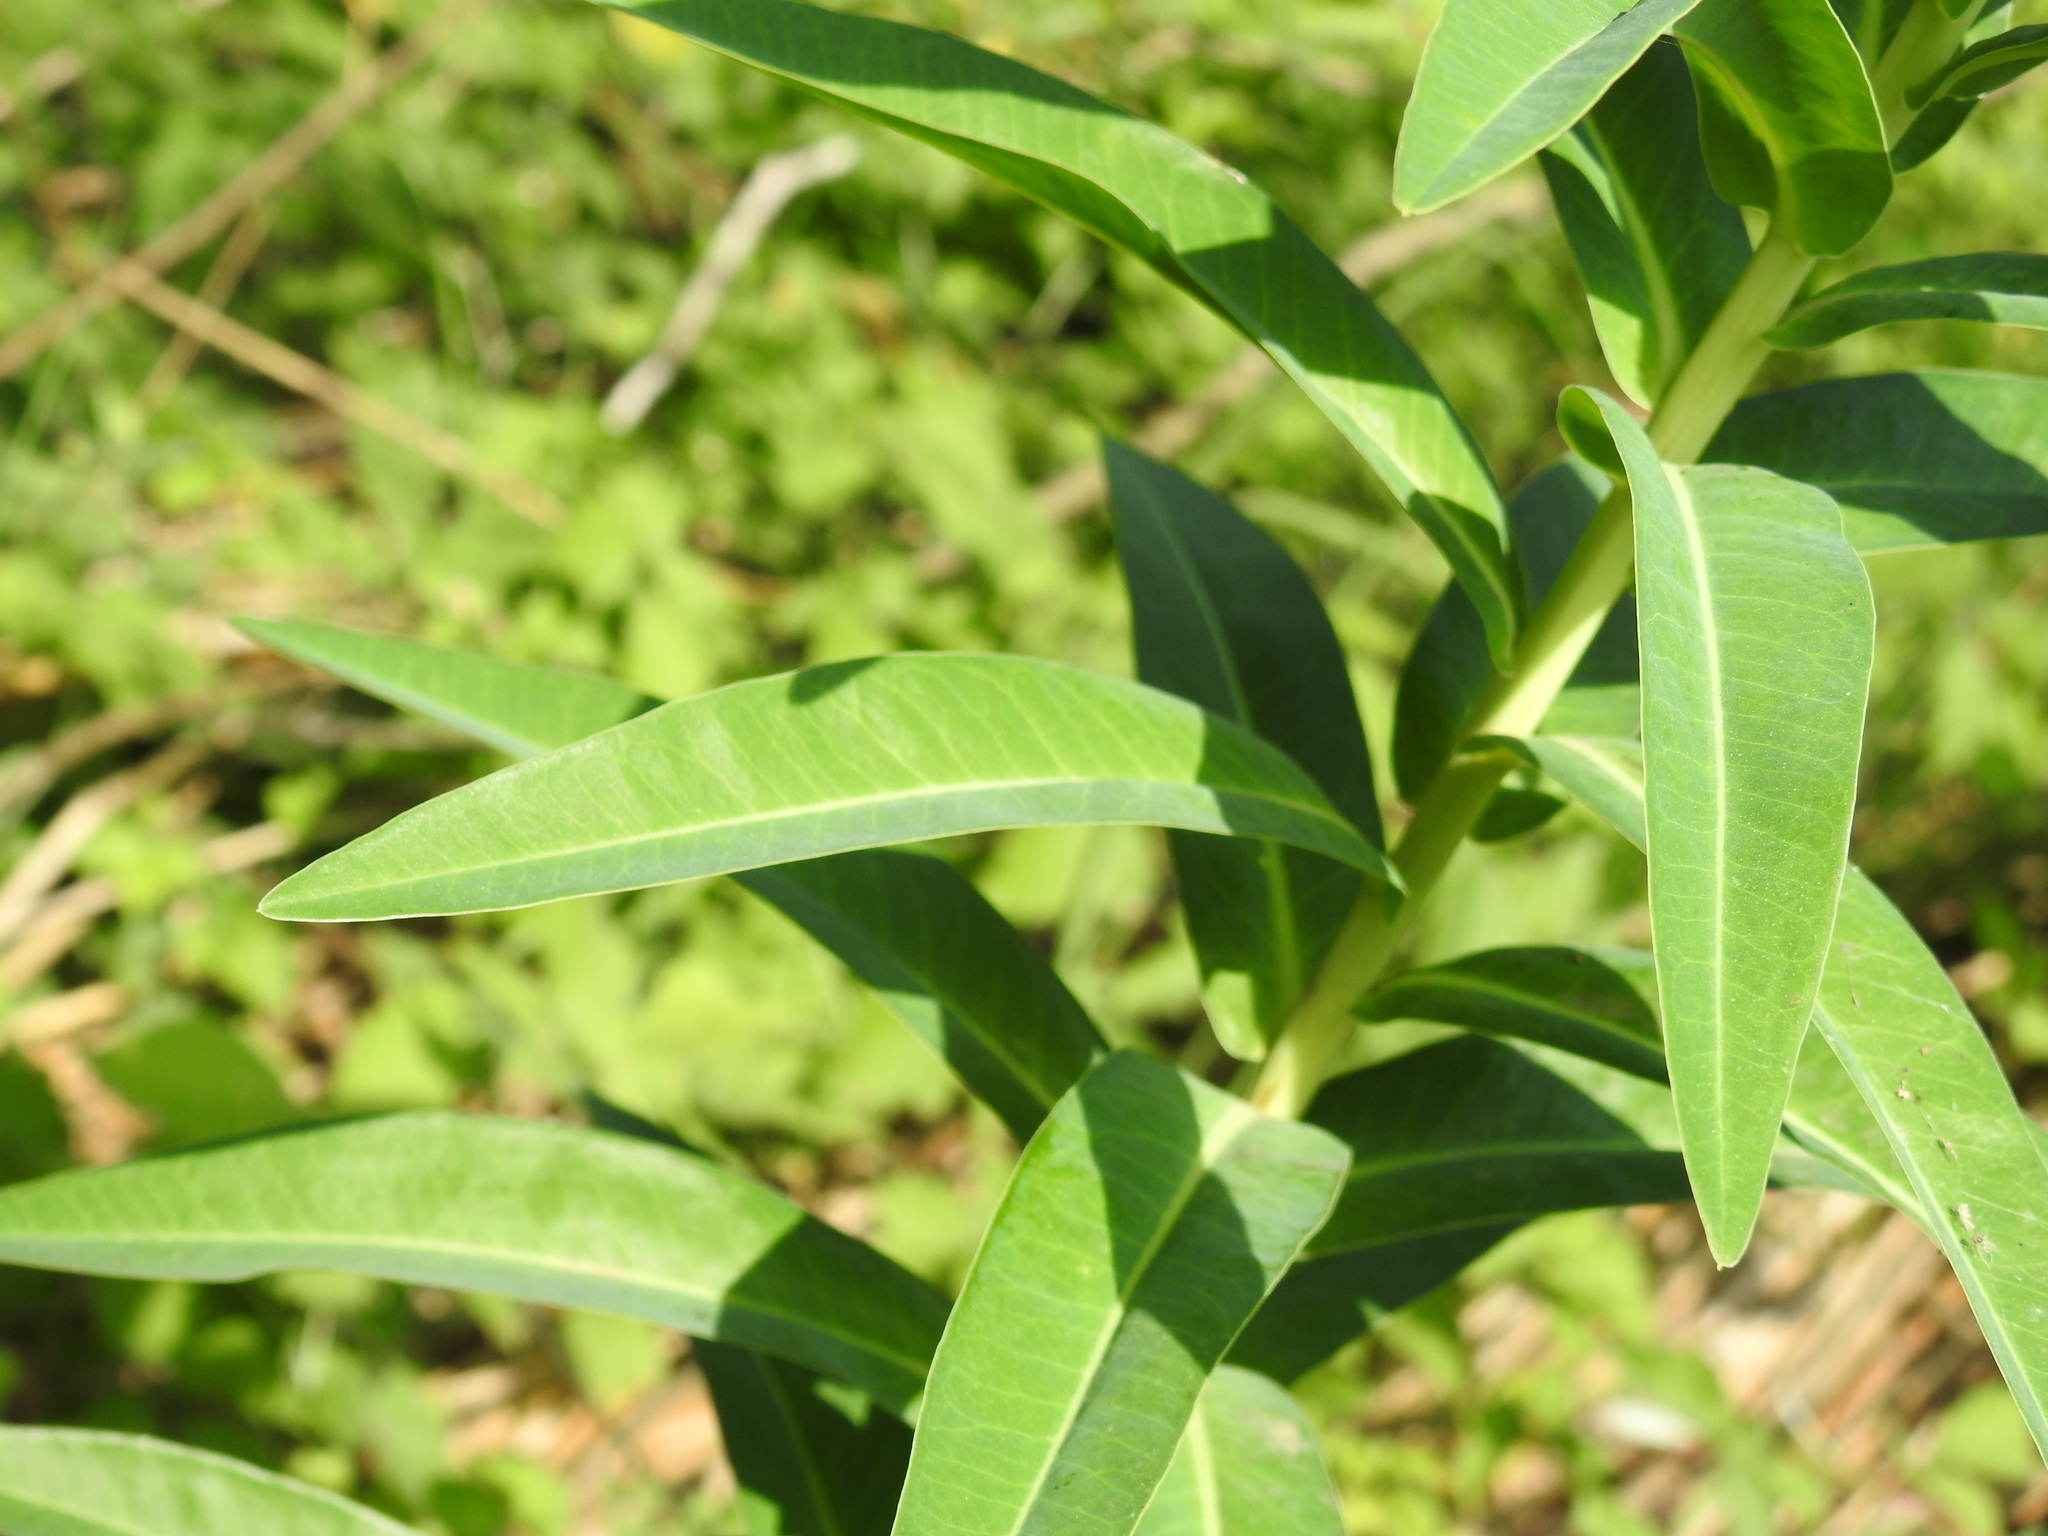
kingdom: Plantae
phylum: Tracheophyta
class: Magnoliopsida
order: Malpighiales
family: Euphorbiaceae
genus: Euphorbia
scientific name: Euphorbia lucida
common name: Shining spurge
